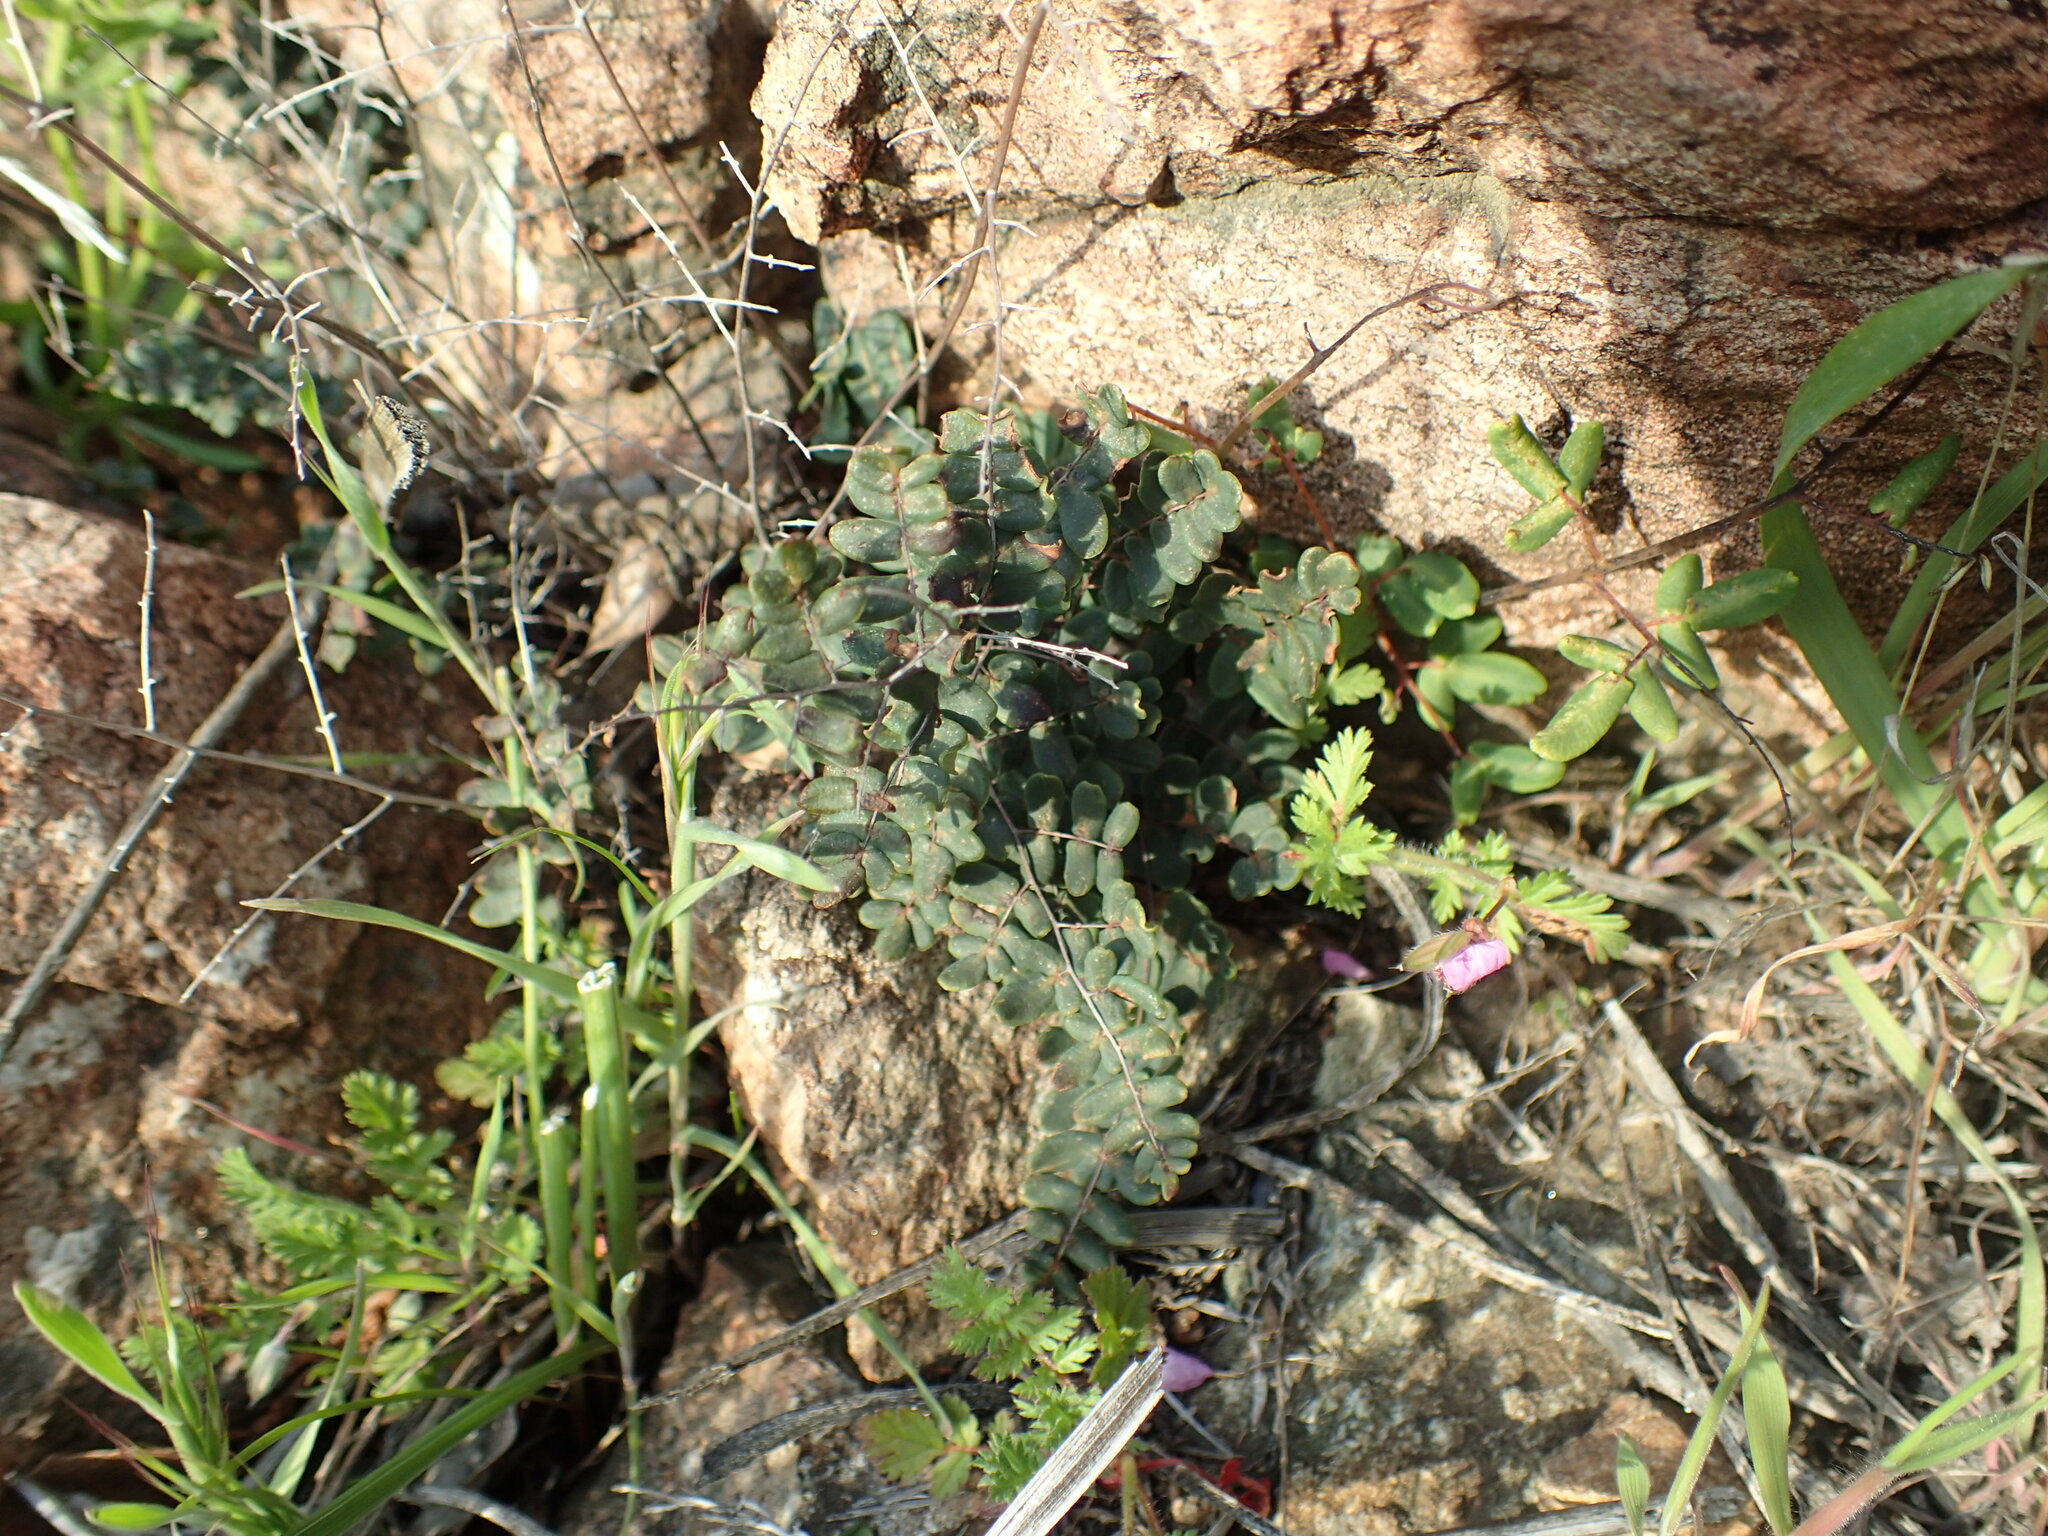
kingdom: Plantae
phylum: Tracheophyta
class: Polypodiopsida
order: Polypodiales
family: Pteridaceae
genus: Pellaea
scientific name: Pellaea andromedifolia
